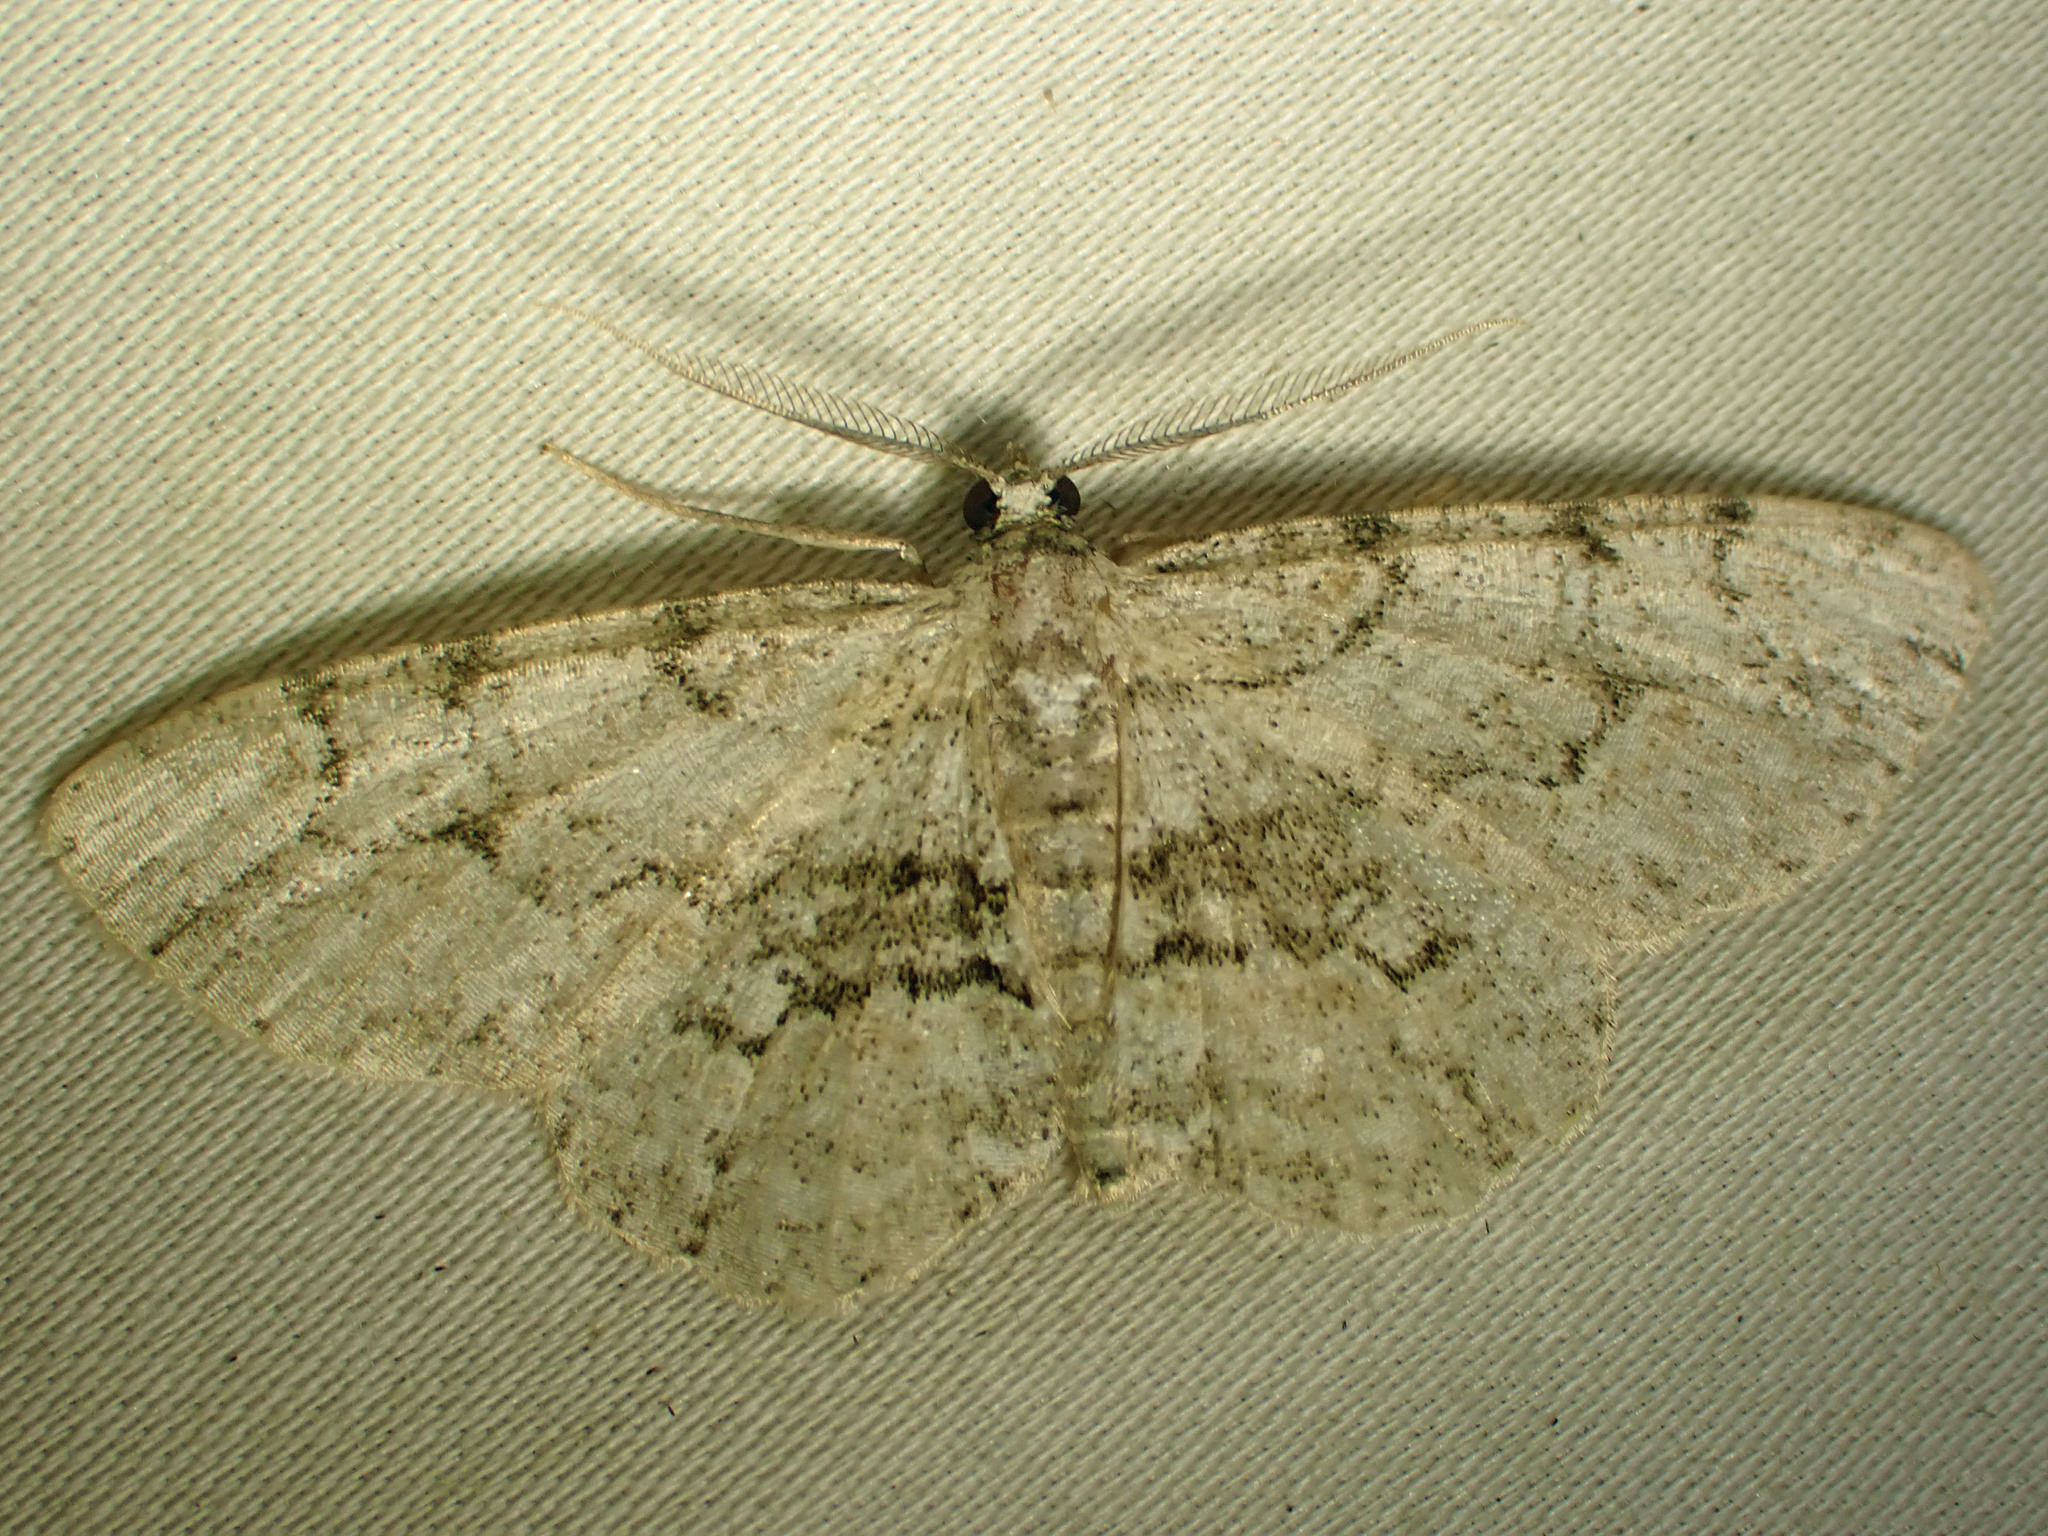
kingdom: Animalia
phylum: Arthropoda
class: Insecta
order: Lepidoptera
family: Geometridae
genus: Iridopsis
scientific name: Iridopsis ephyraria
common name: Pale-winged gray
